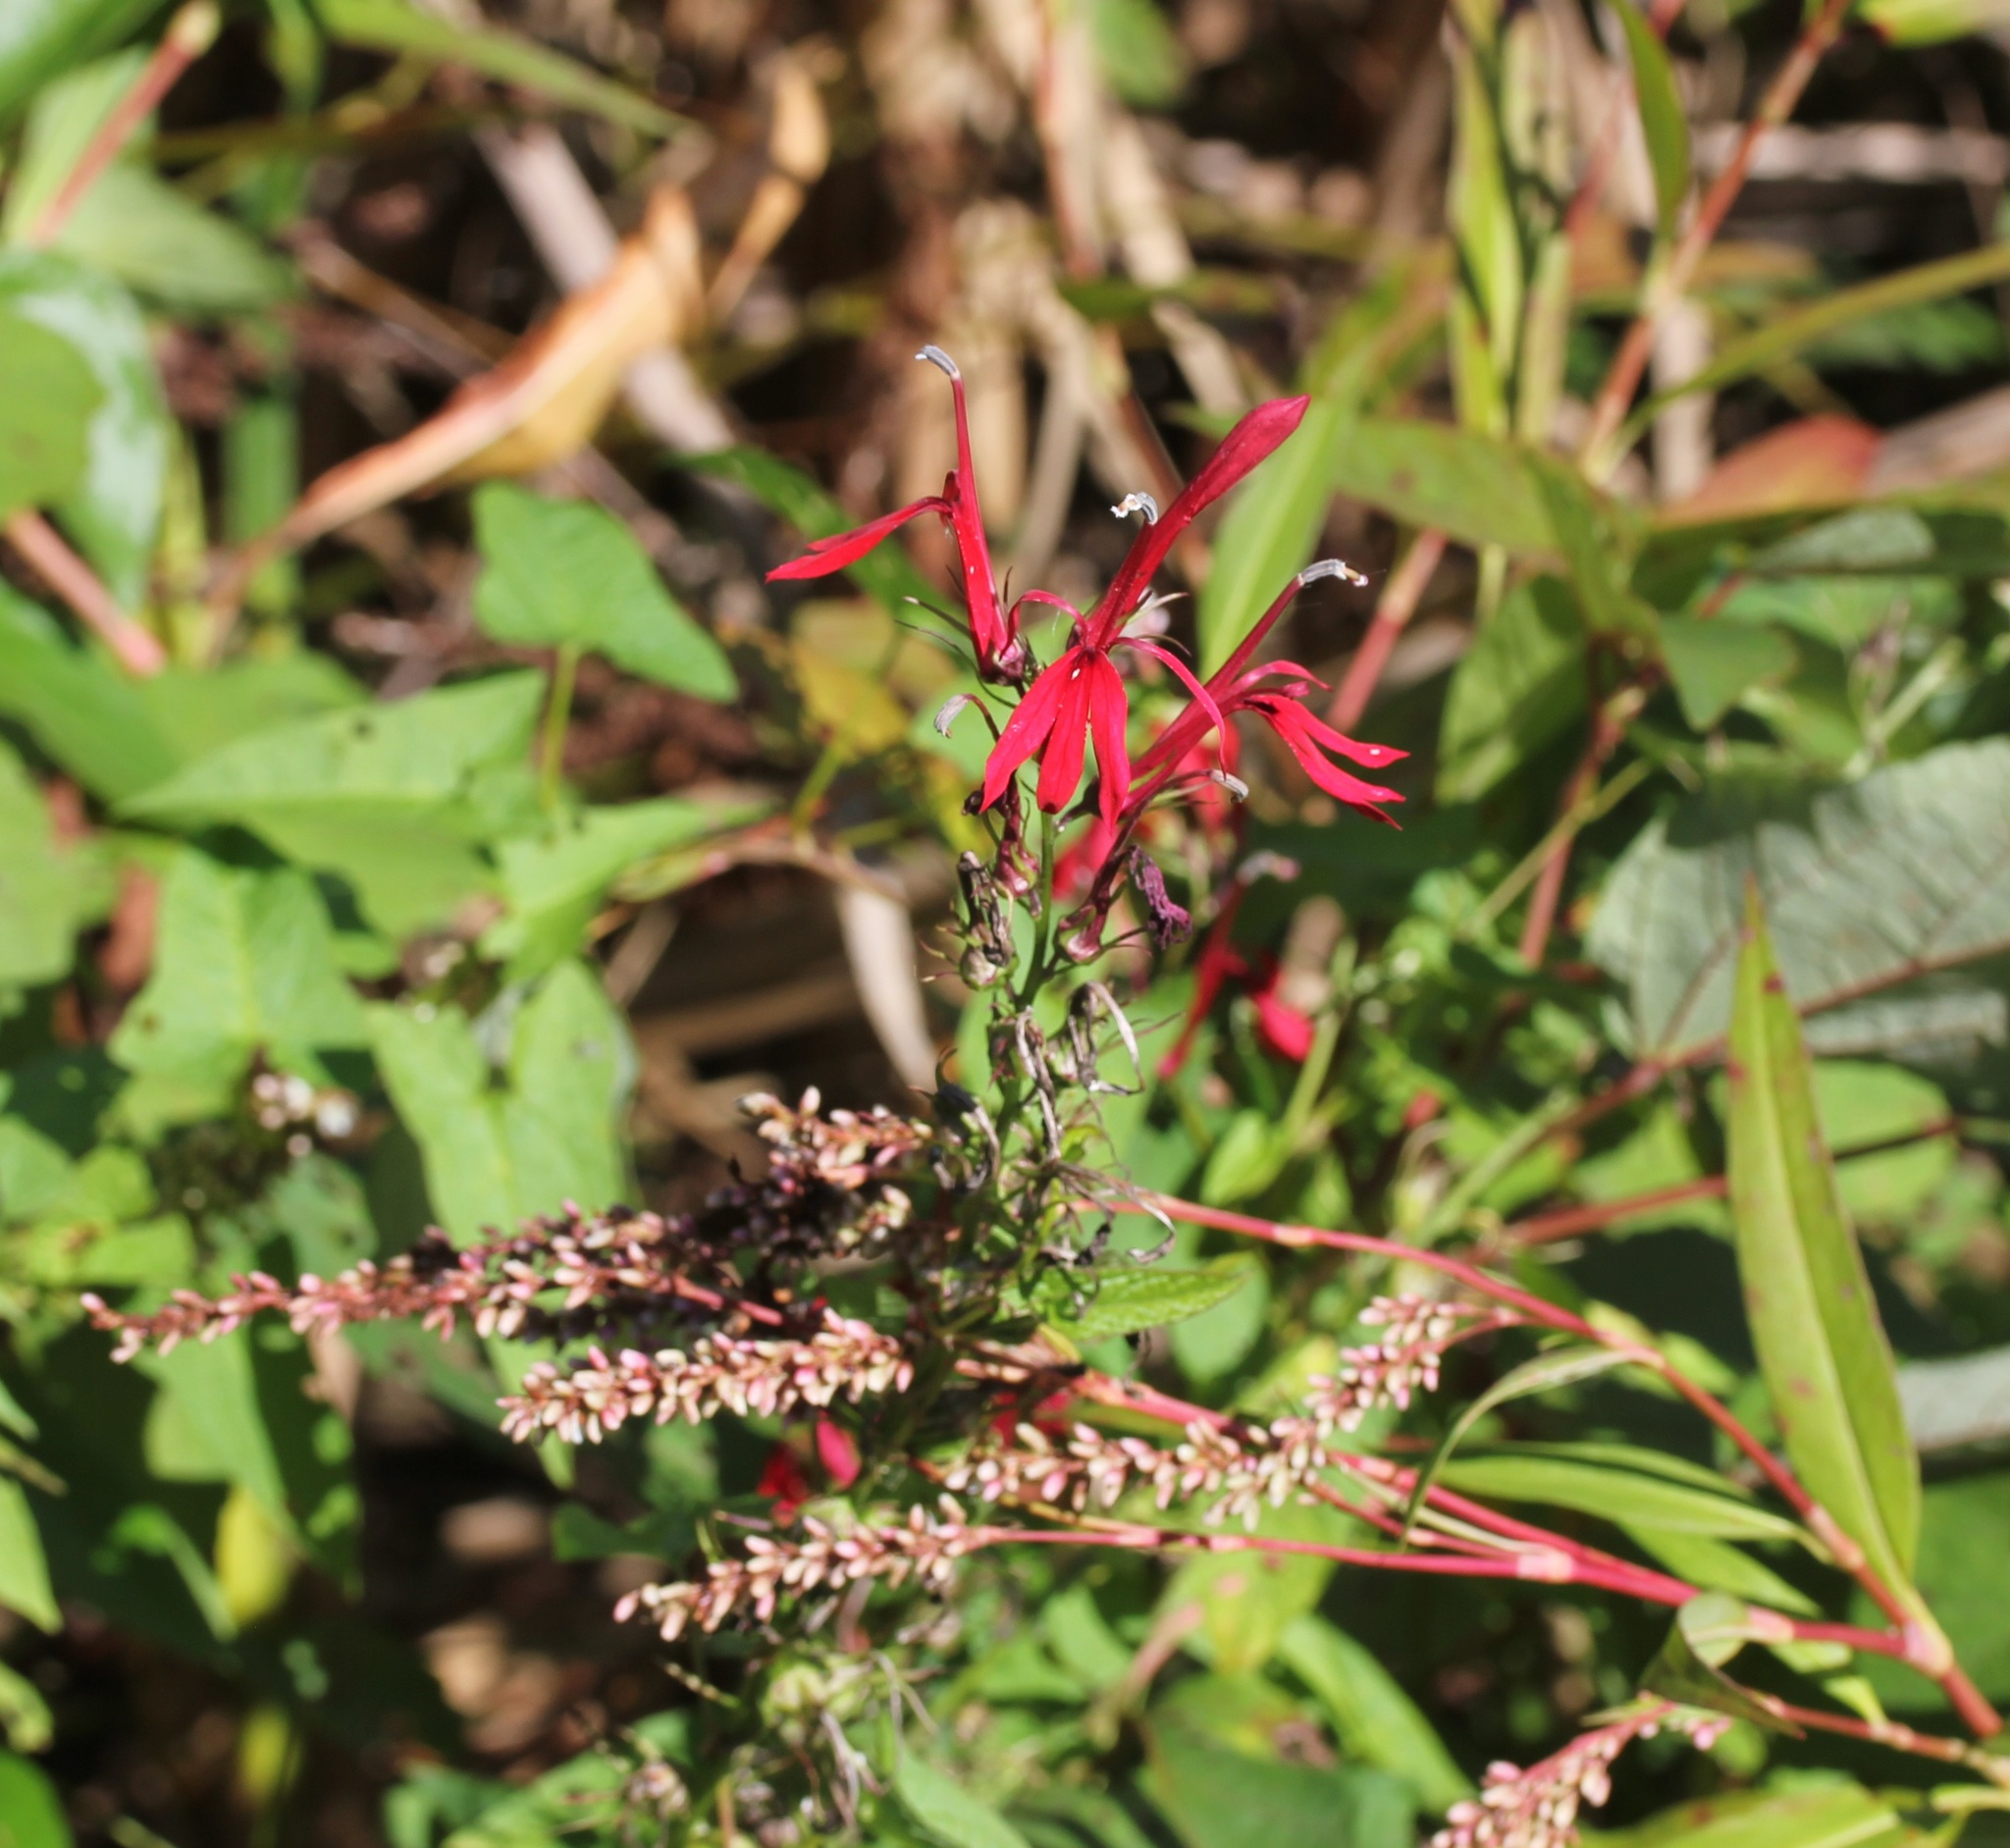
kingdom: Plantae
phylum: Tracheophyta
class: Magnoliopsida
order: Asterales
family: Campanulaceae
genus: Lobelia
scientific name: Lobelia cardinalis
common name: Cardinal flower
